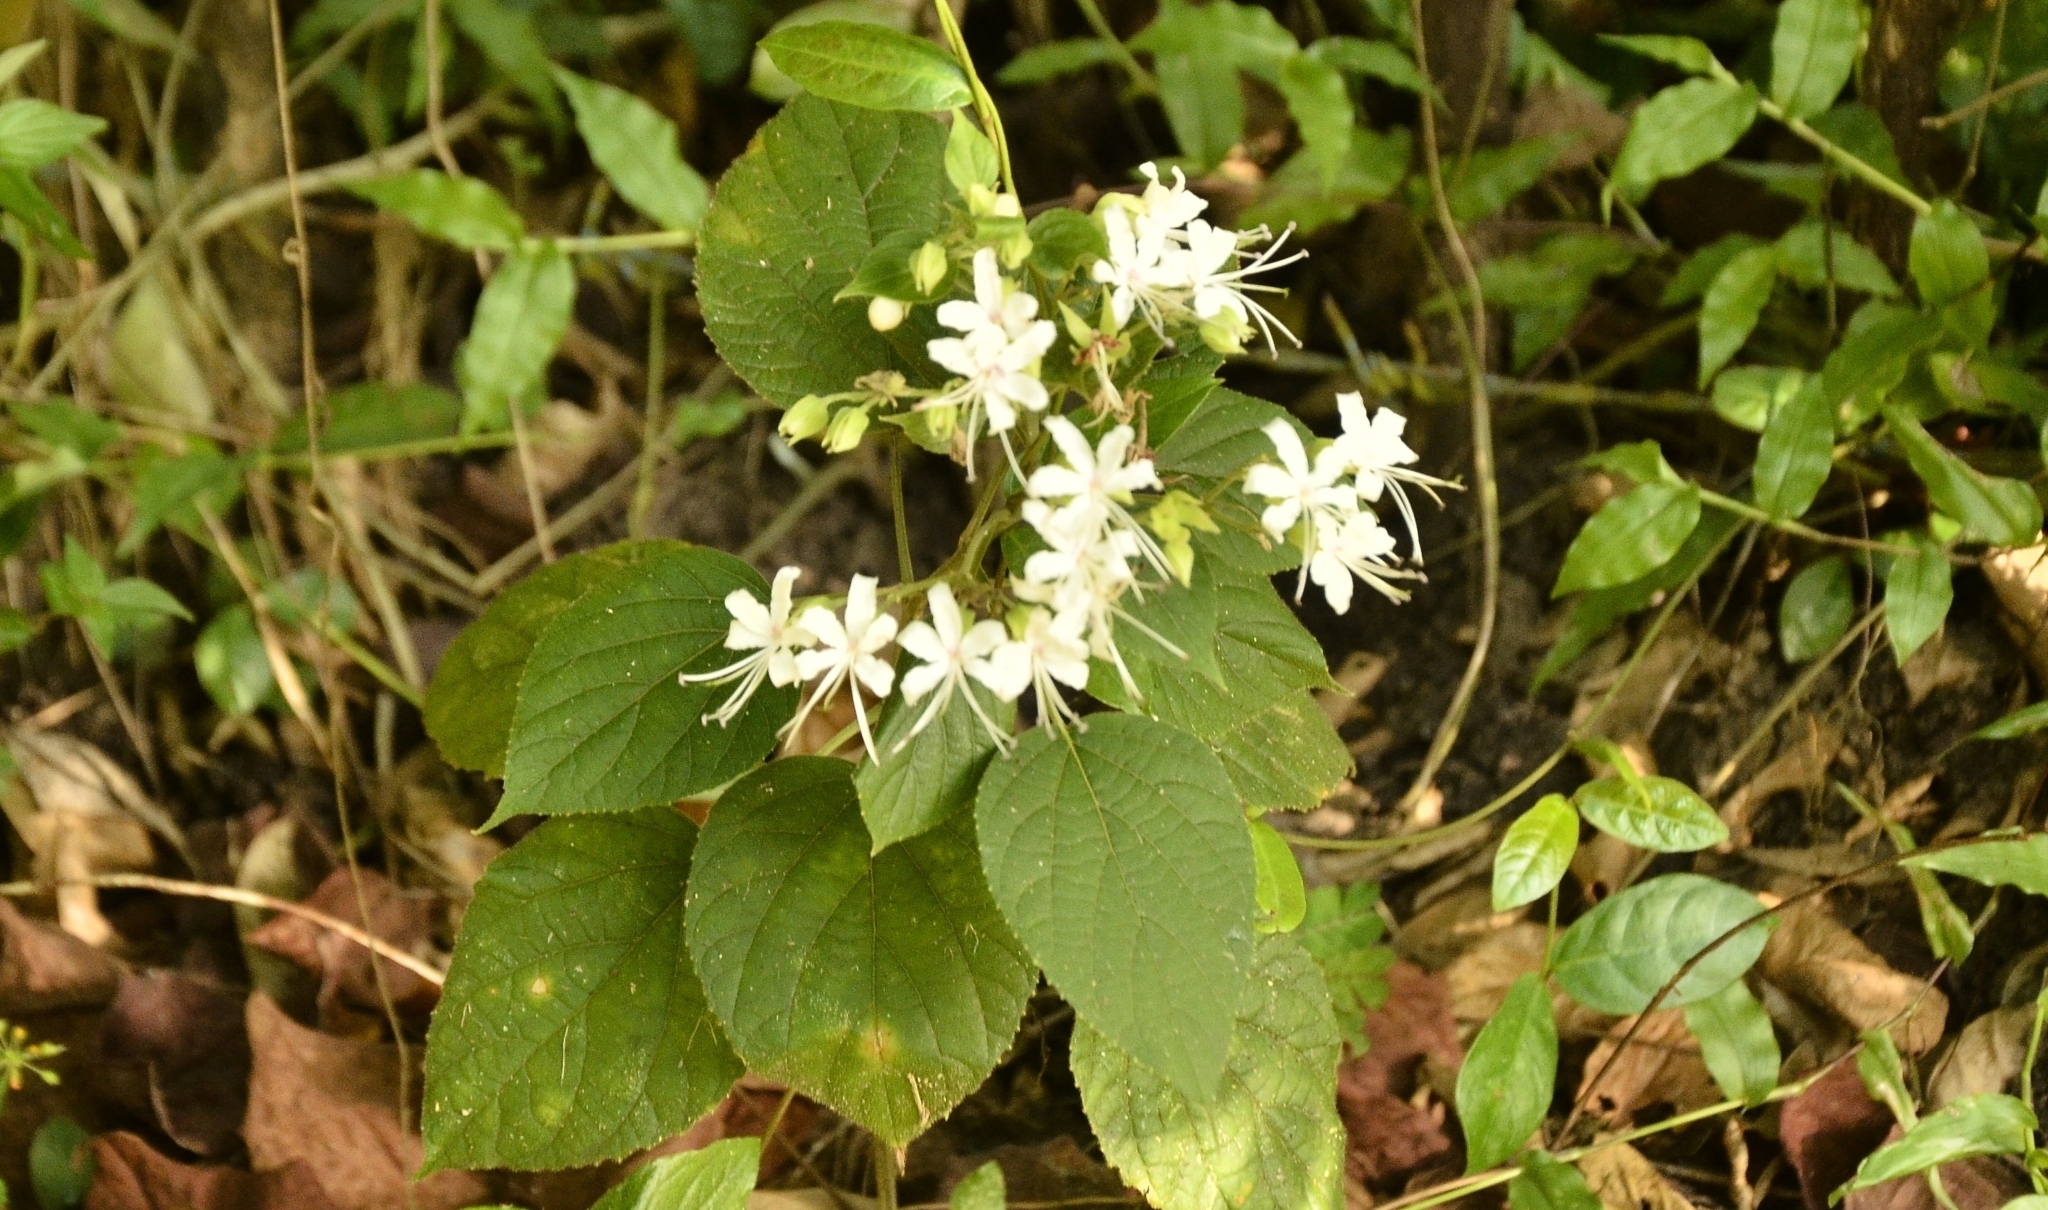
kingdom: Plantae
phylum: Tracheophyta
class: Magnoliopsida
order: Lamiales
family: Lamiaceae
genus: Clerodendrum
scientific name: Clerodendrum infortunatum
